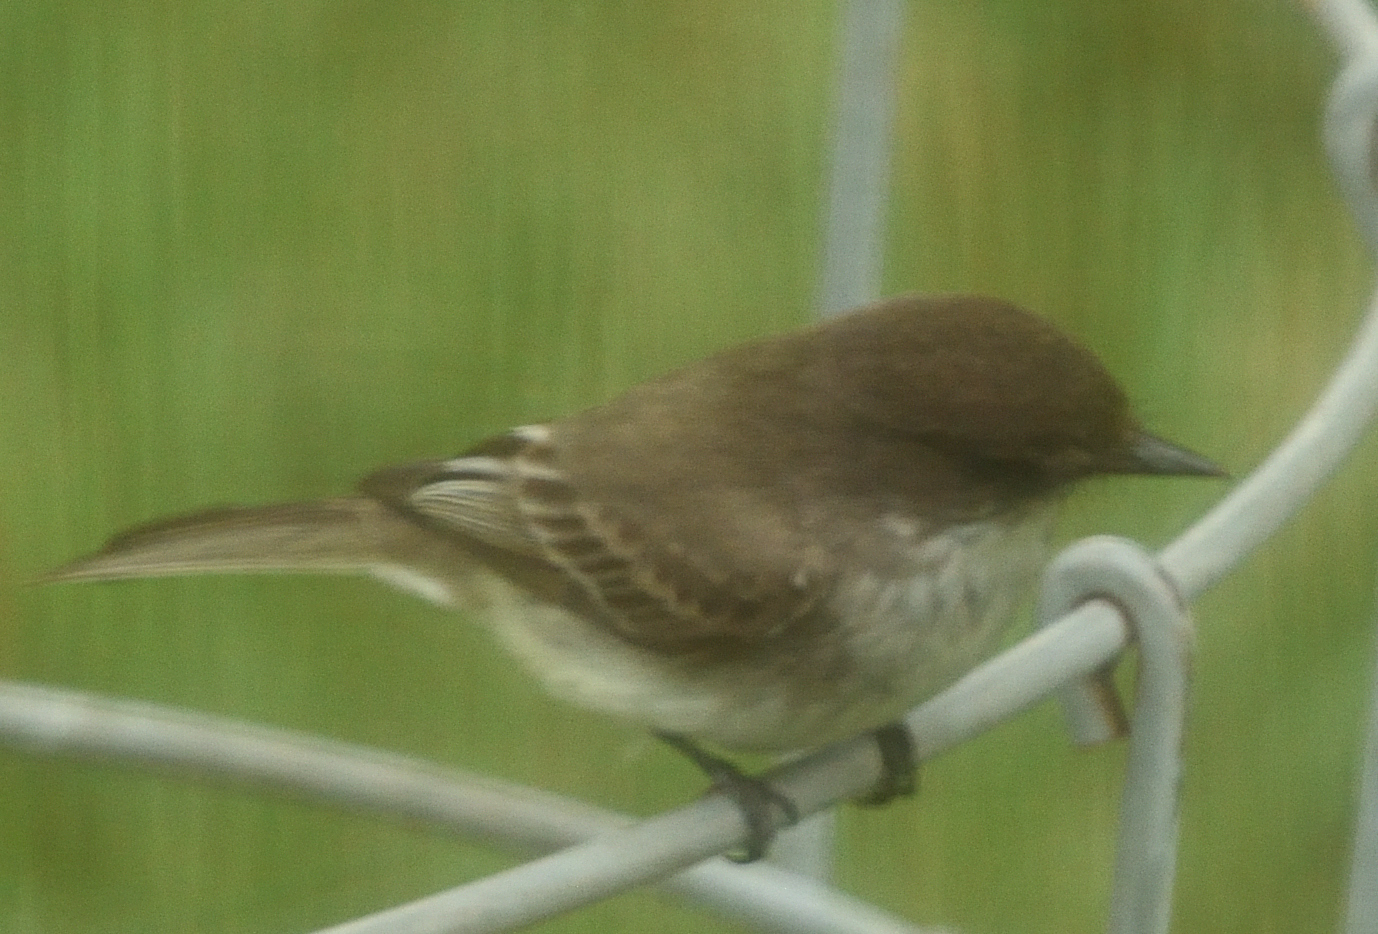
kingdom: Animalia
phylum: Chordata
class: Aves
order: Passeriformes
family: Tyrannidae
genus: Sayornis
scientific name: Sayornis phoebe
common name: Eastern phoebe
